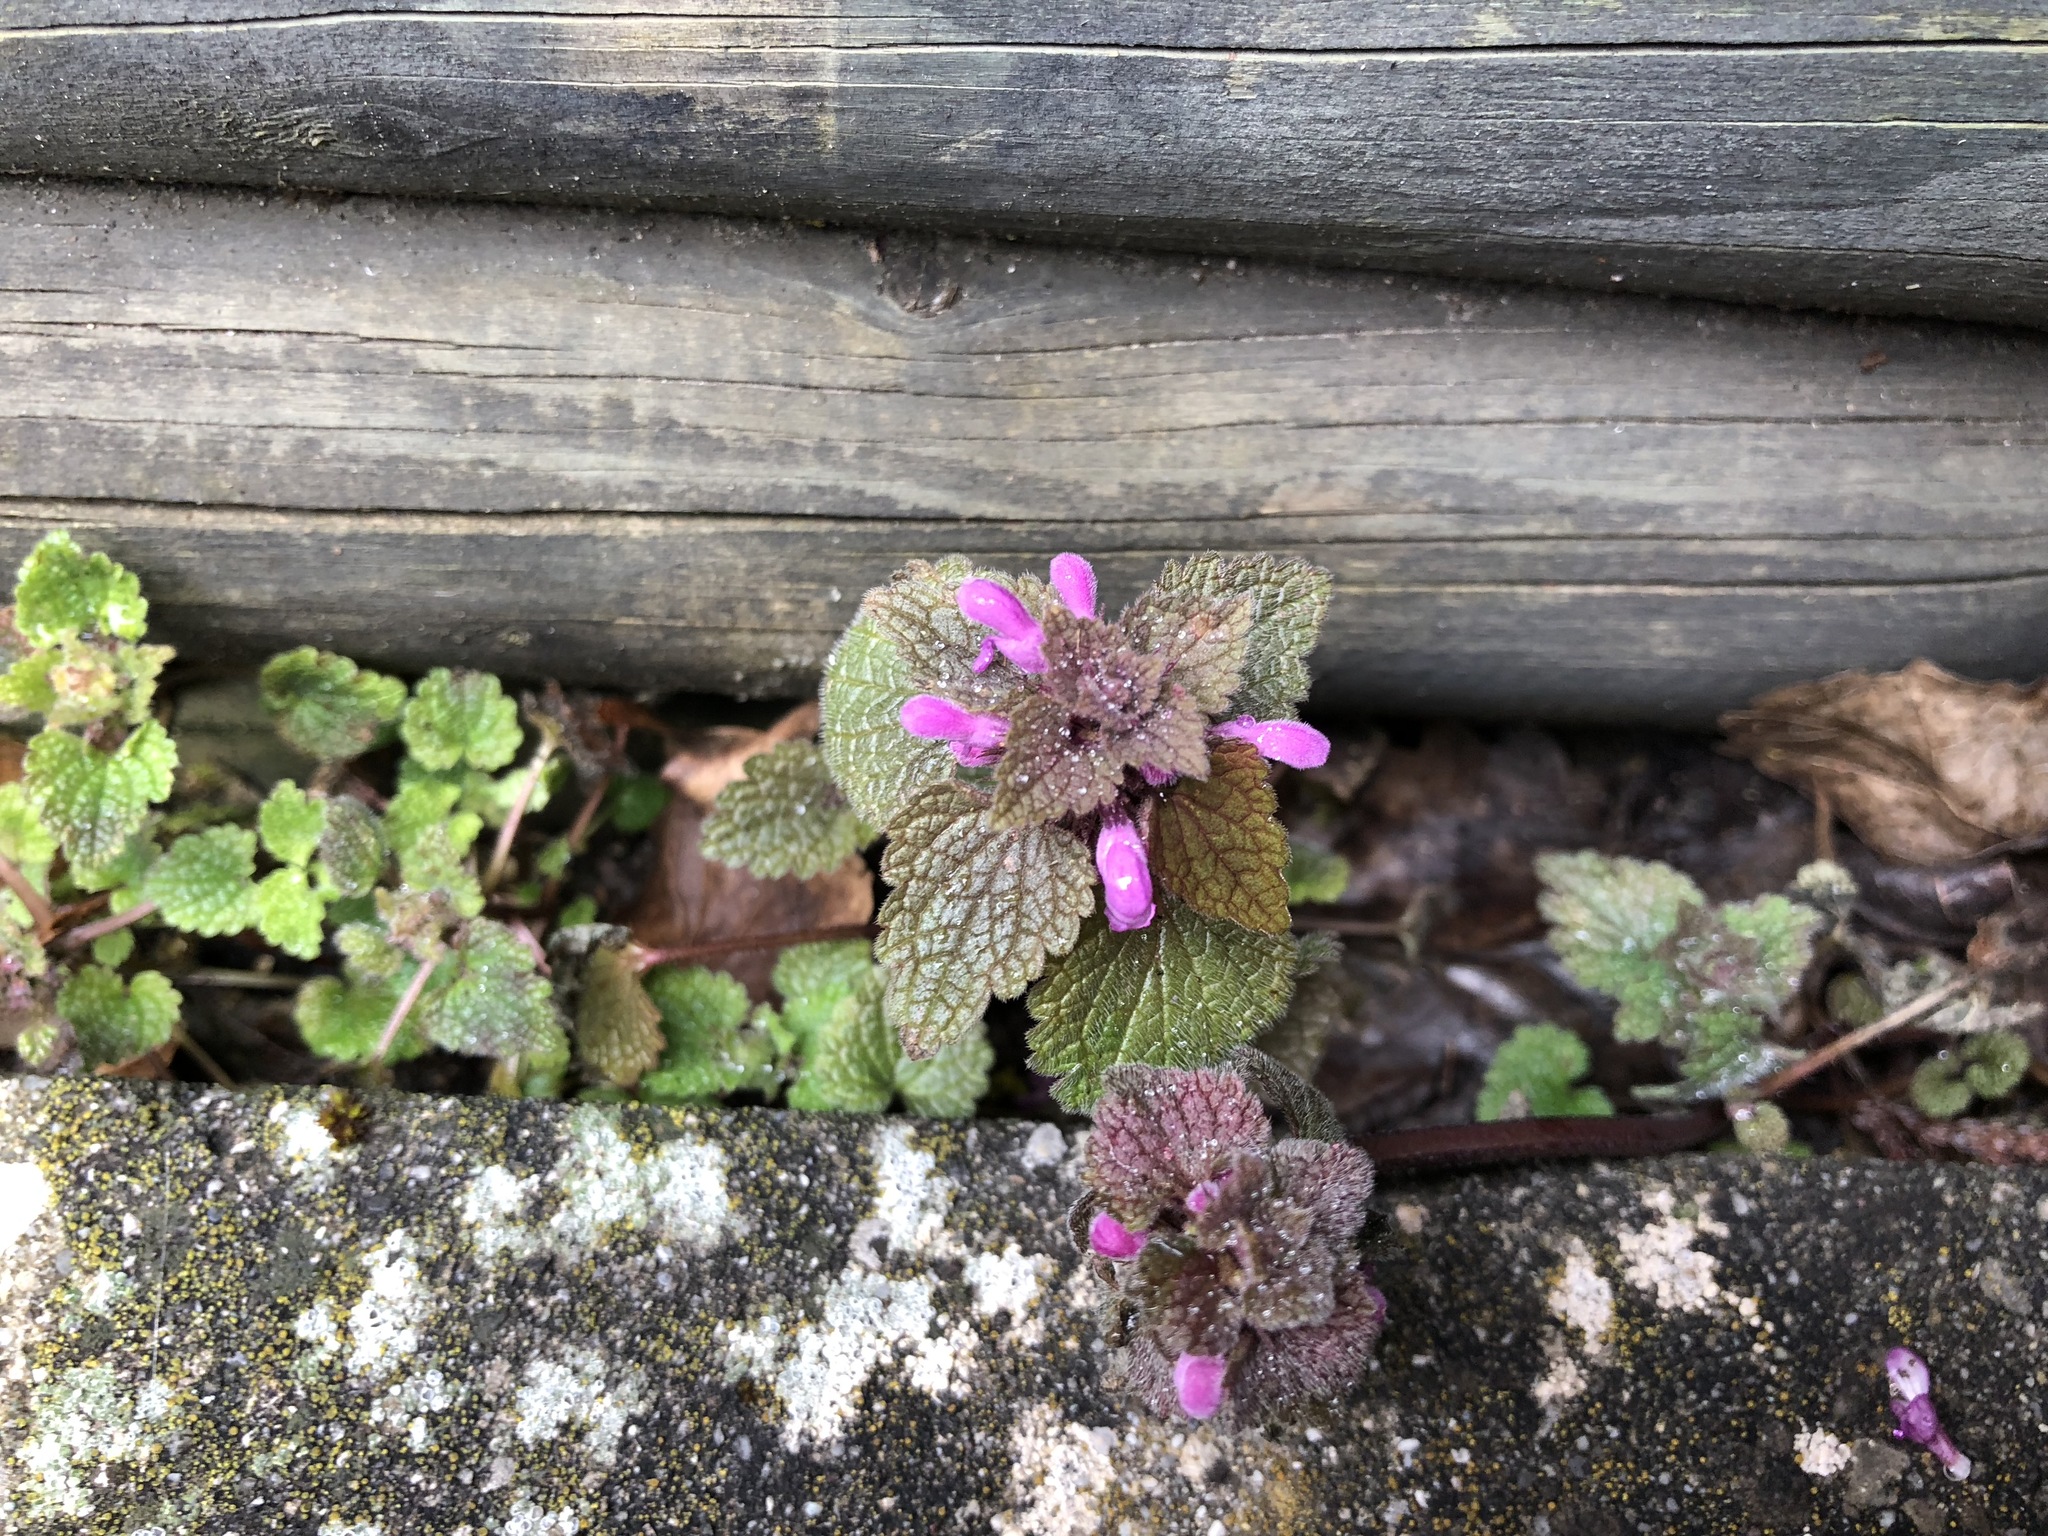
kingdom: Plantae
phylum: Tracheophyta
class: Magnoliopsida
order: Lamiales
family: Lamiaceae
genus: Lamium
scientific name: Lamium purpureum
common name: Red dead-nettle
